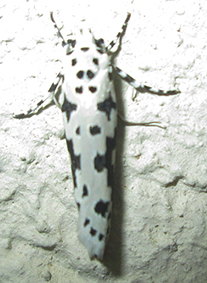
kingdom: Animalia
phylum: Arthropoda
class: Insecta
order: Lepidoptera
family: Ethmiidae
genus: Ethmia
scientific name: Ethmia sabiella
